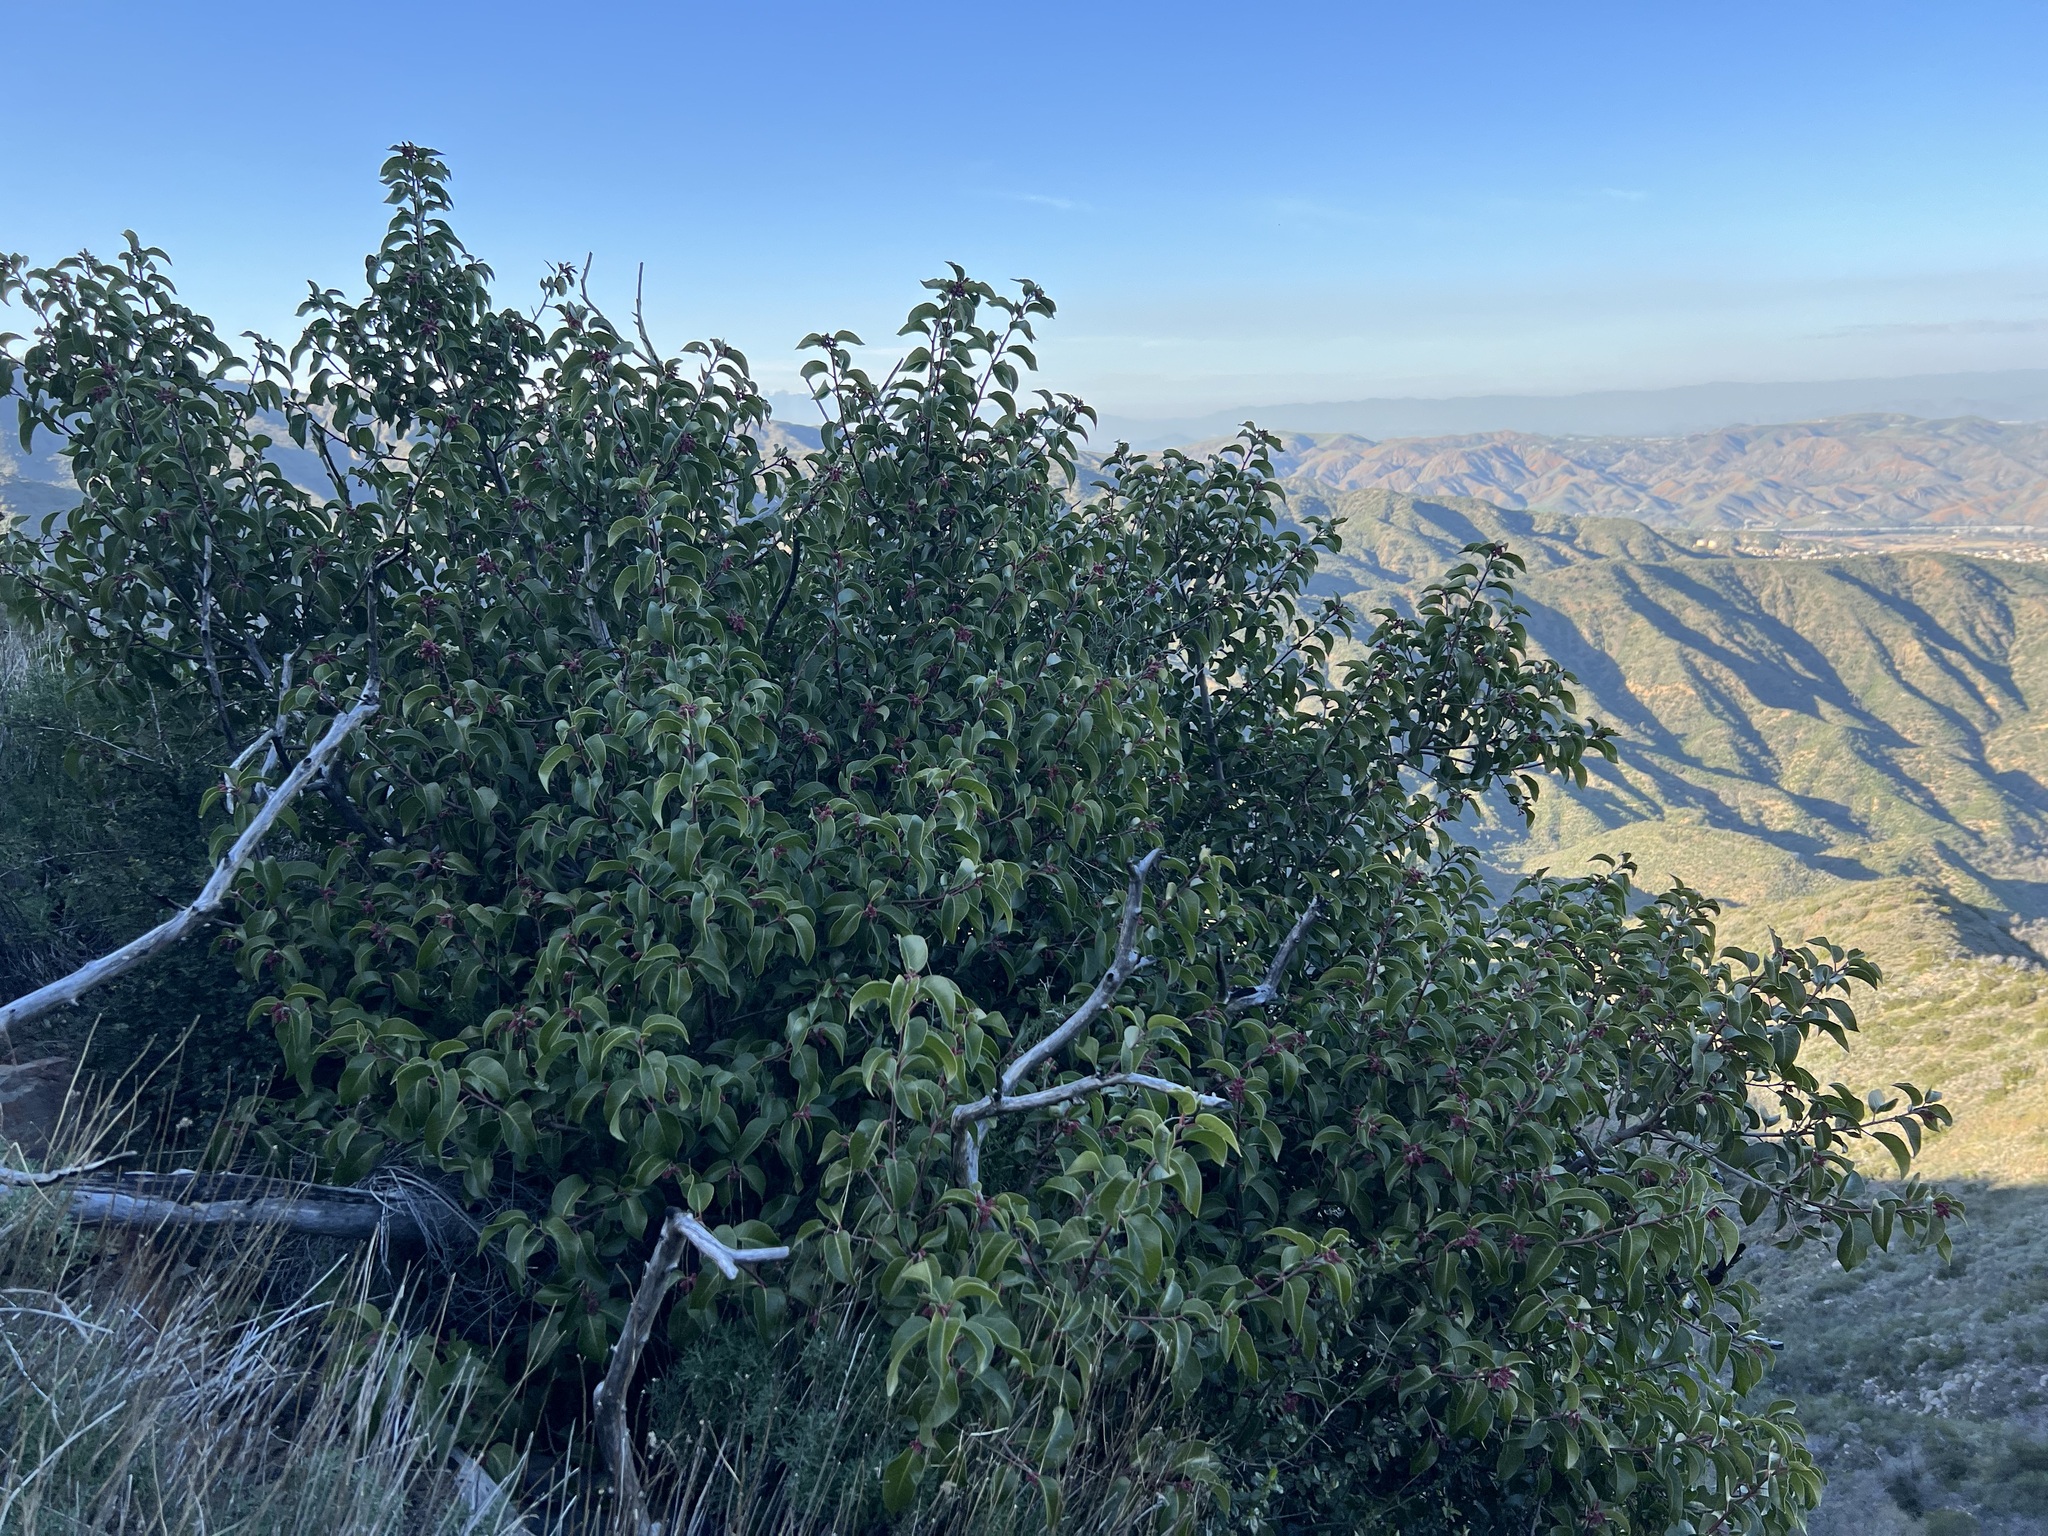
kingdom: Plantae
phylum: Tracheophyta
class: Magnoliopsida
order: Sapindales
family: Anacardiaceae
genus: Rhus
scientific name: Rhus ovata
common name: Sugar sumac
